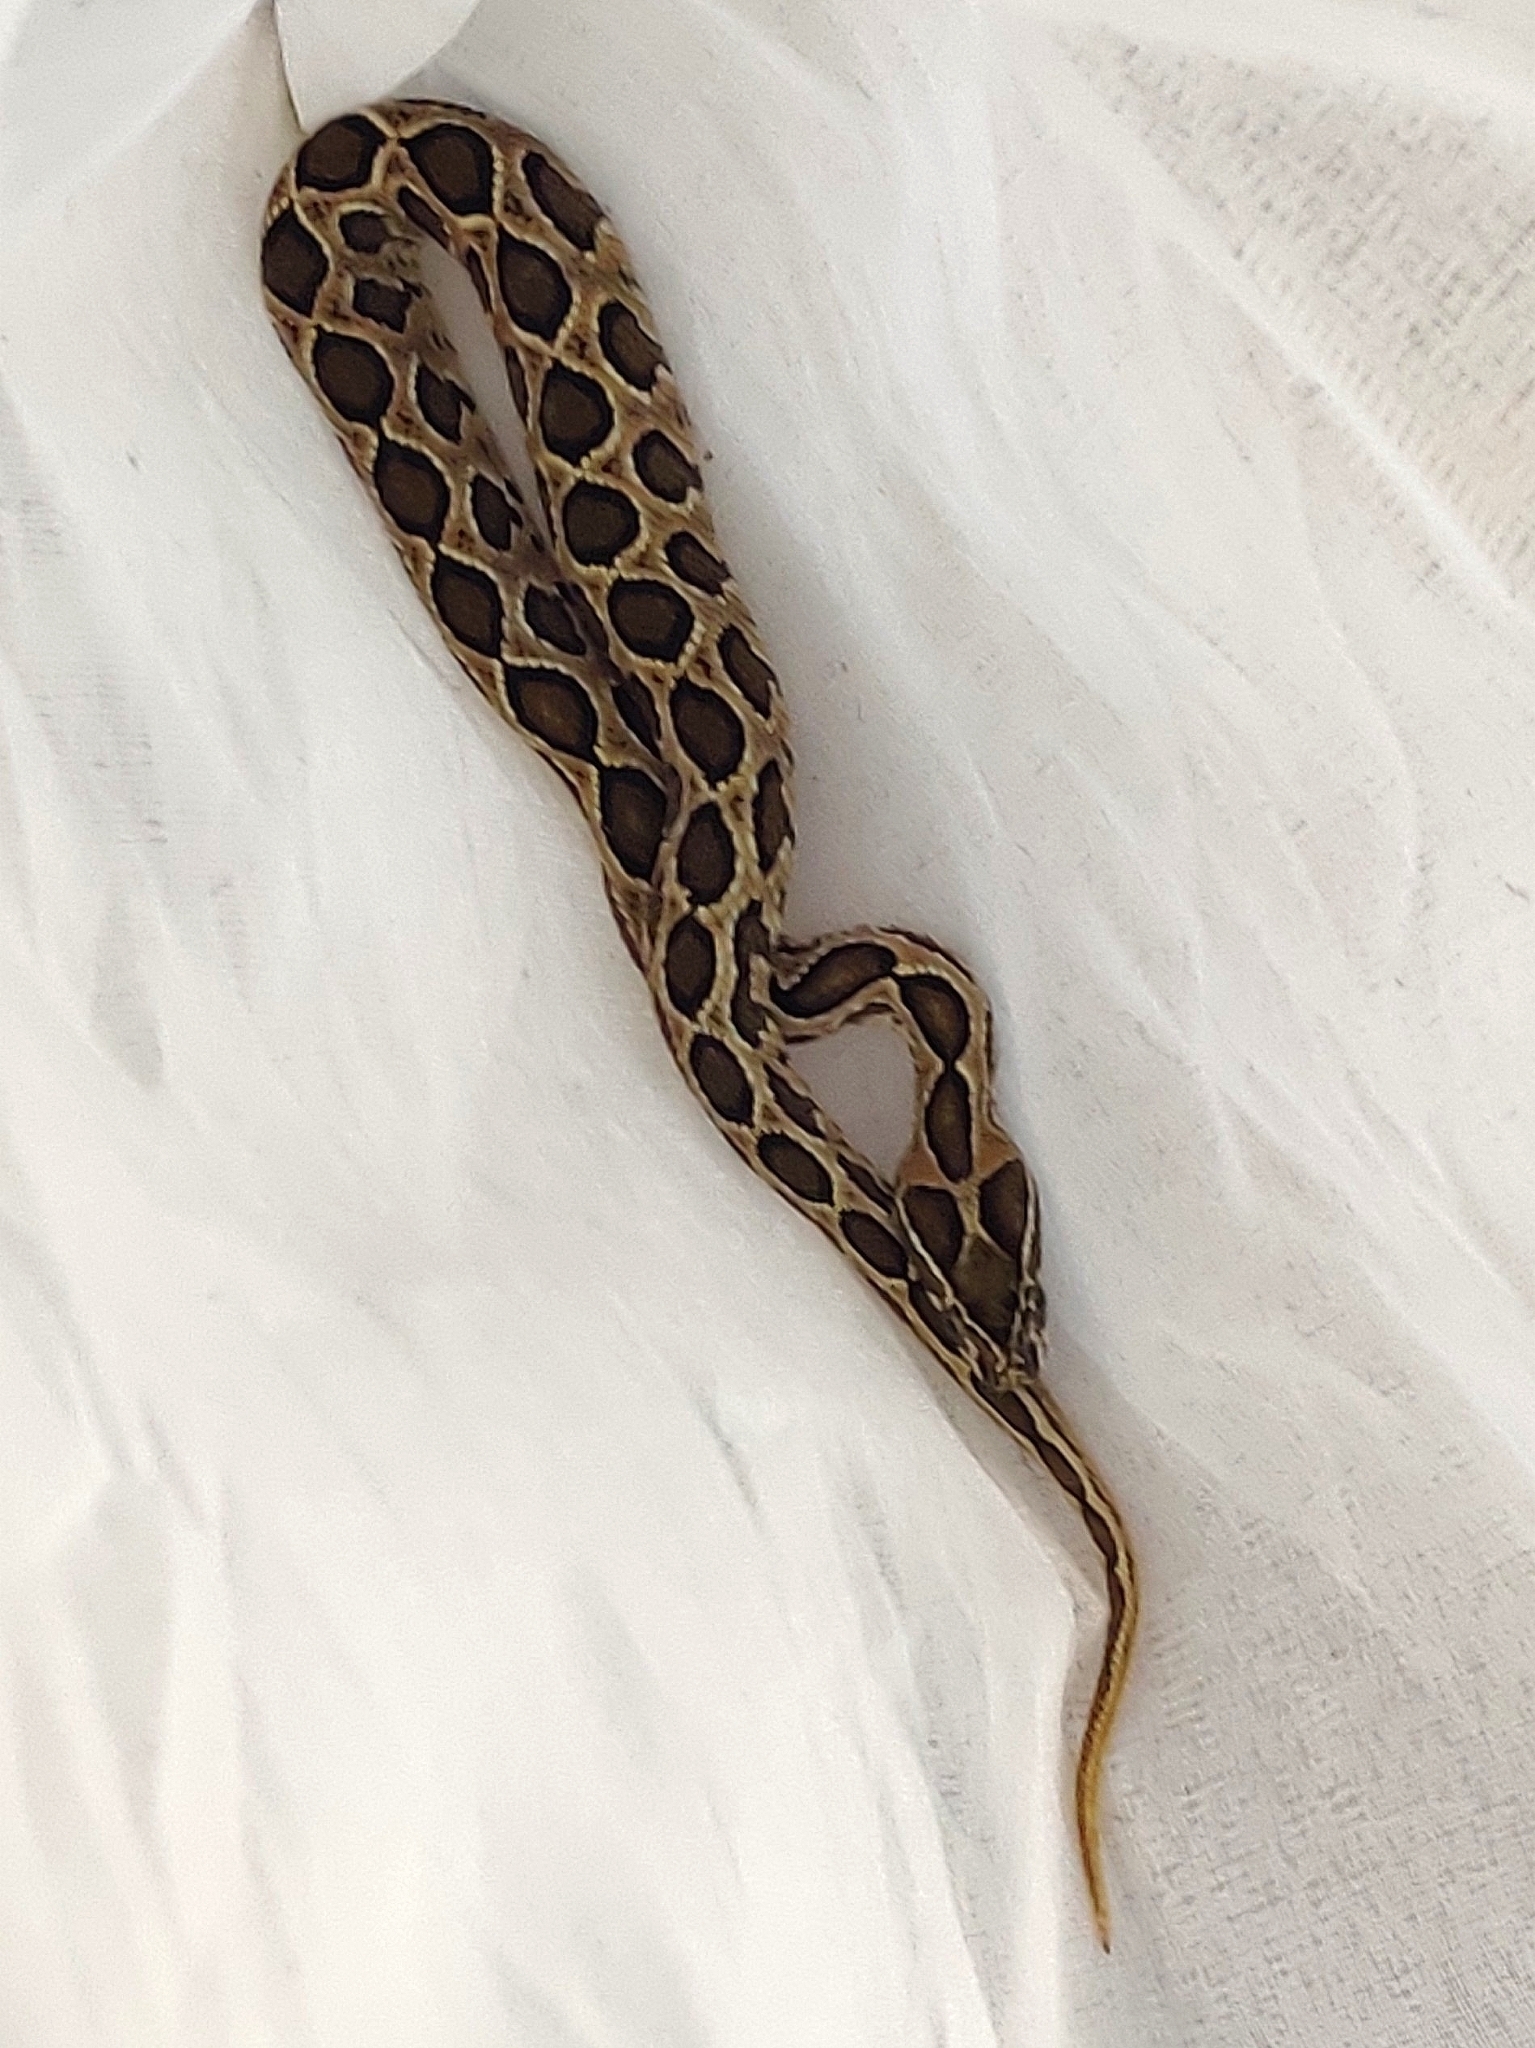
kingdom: Animalia
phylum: Chordata
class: Squamata
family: Viperidae
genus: Daboia
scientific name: Daboia russelii
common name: Western russel’s viper
